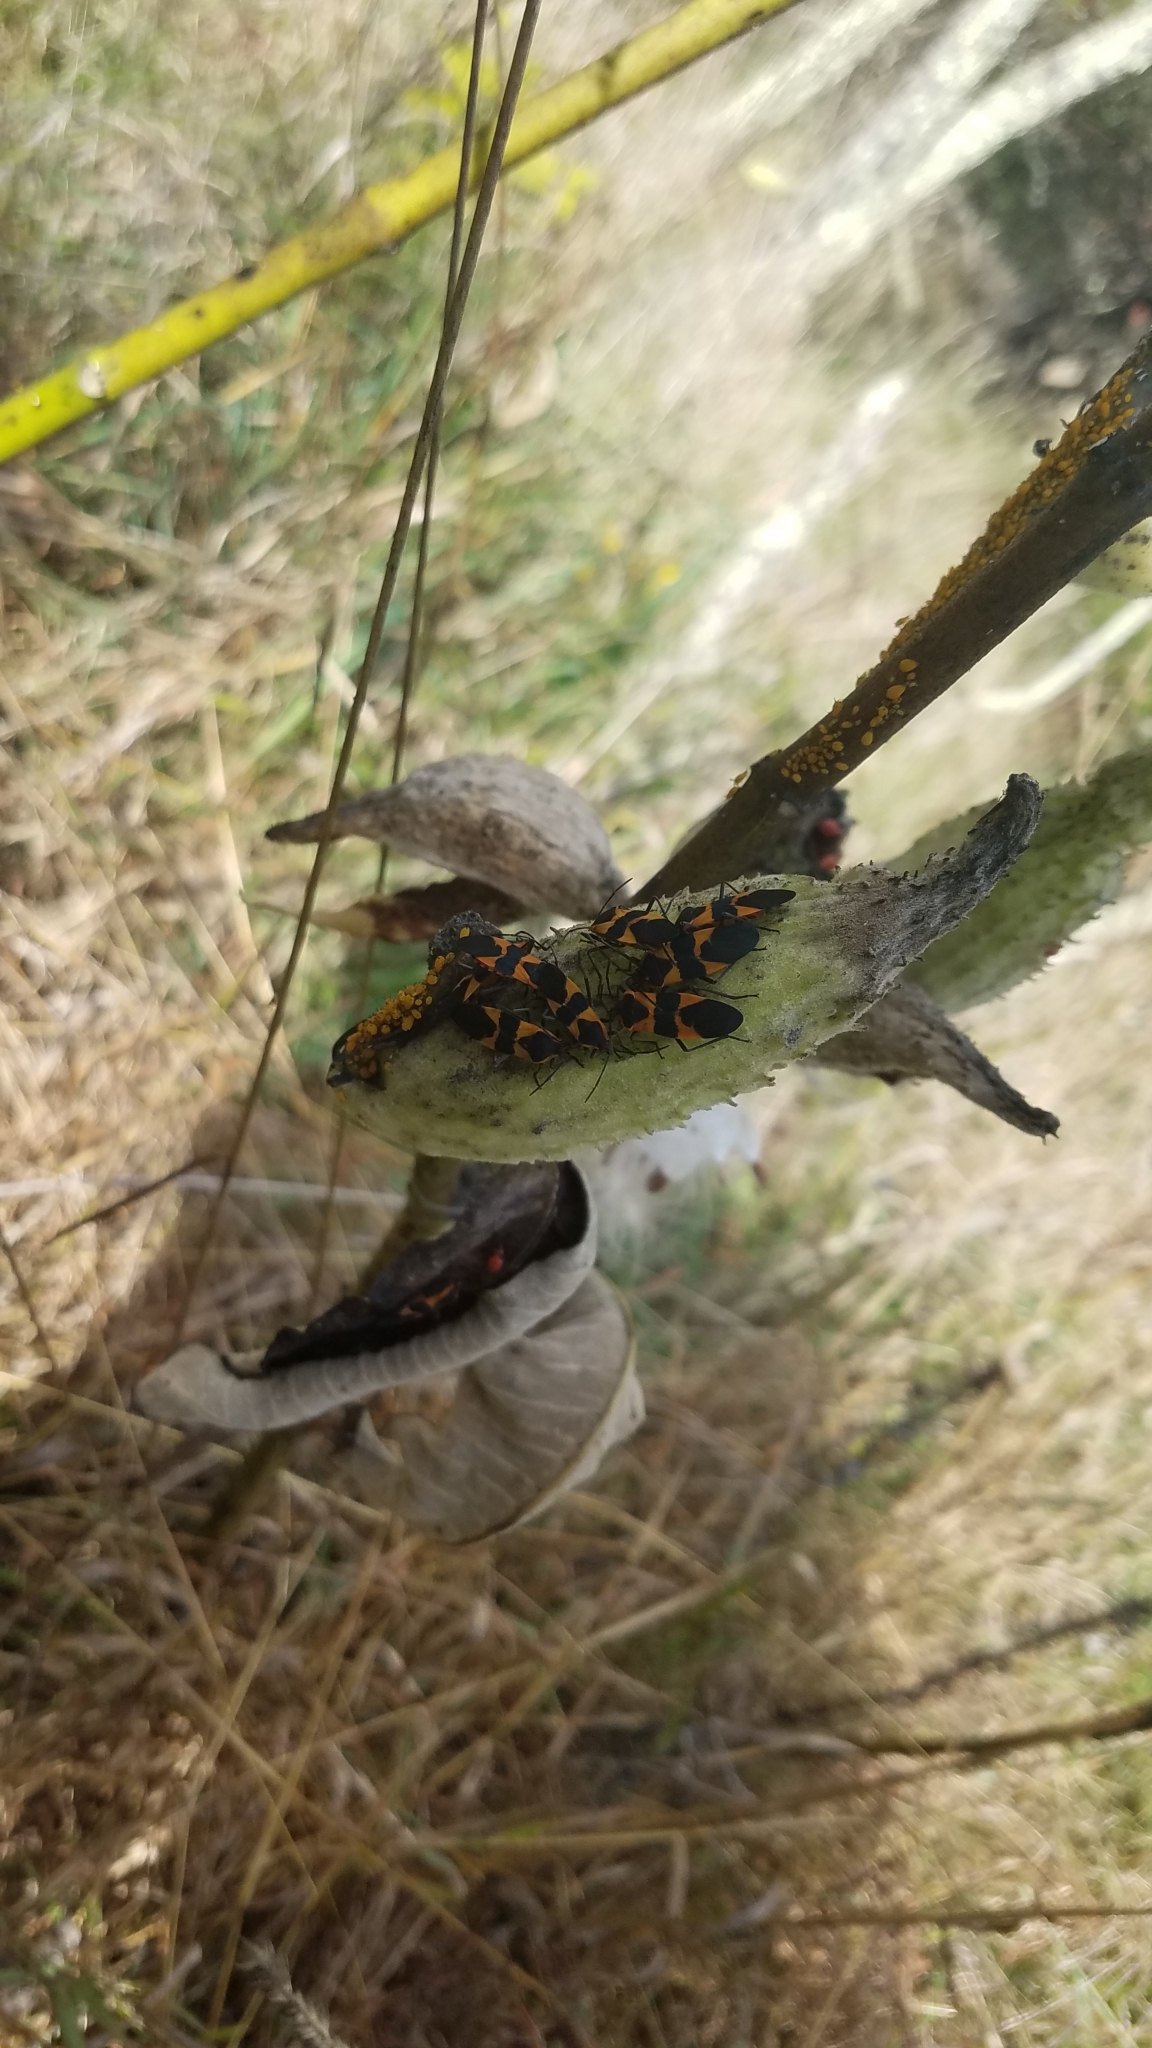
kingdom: Animalia
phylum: Arthropoda
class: Insecta
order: Hemiptera
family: Lygaeidae
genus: Oncopeltus
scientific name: Oncopeltus fasciatus
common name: Large milkweed bug
